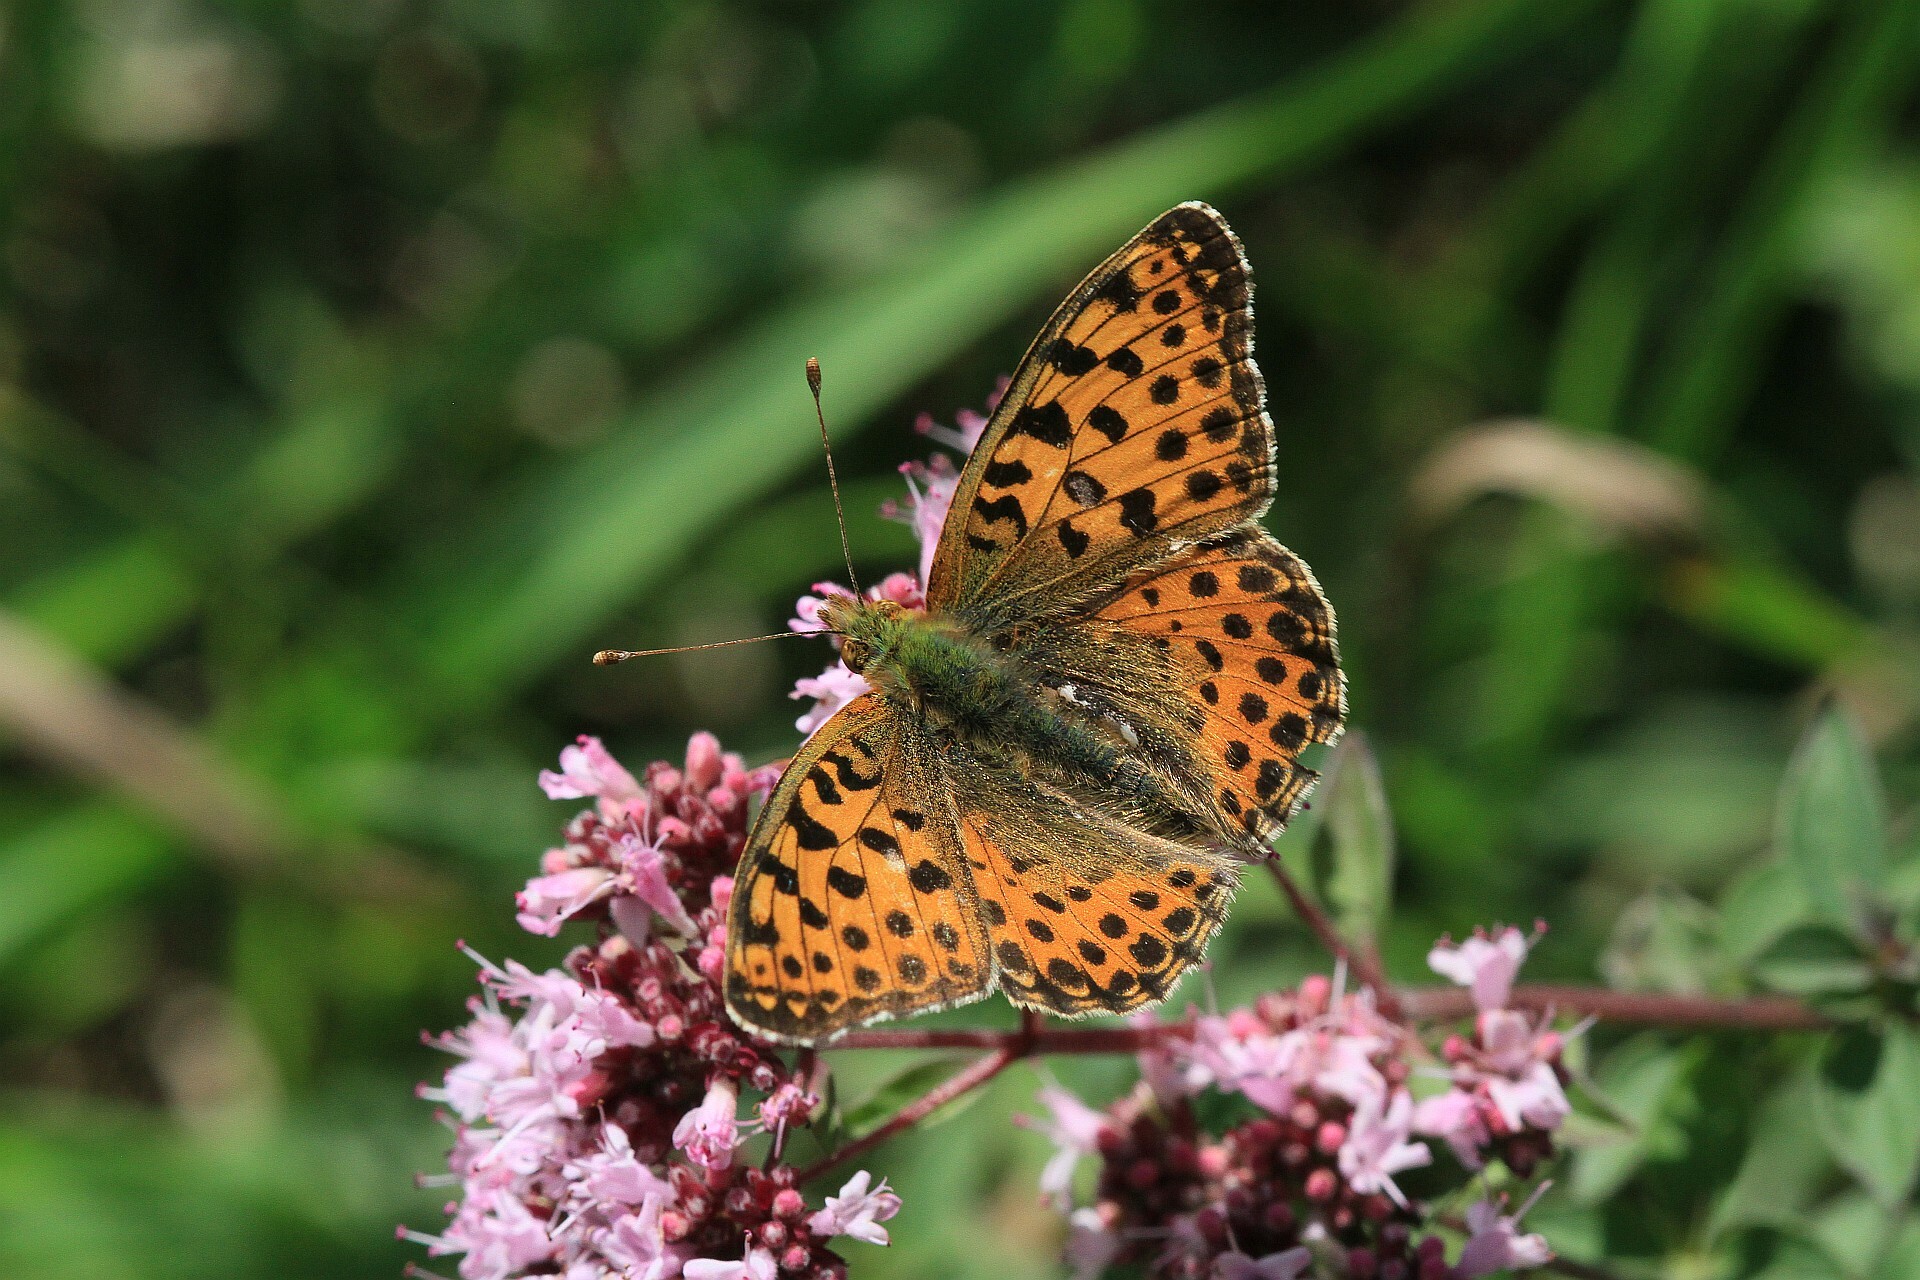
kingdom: Animalia
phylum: Arthropoda
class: Insecta
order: Lepidoptera
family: Nymphalidae
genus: Issoria
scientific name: Issoria lathonia
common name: Queen of spain fritillary
